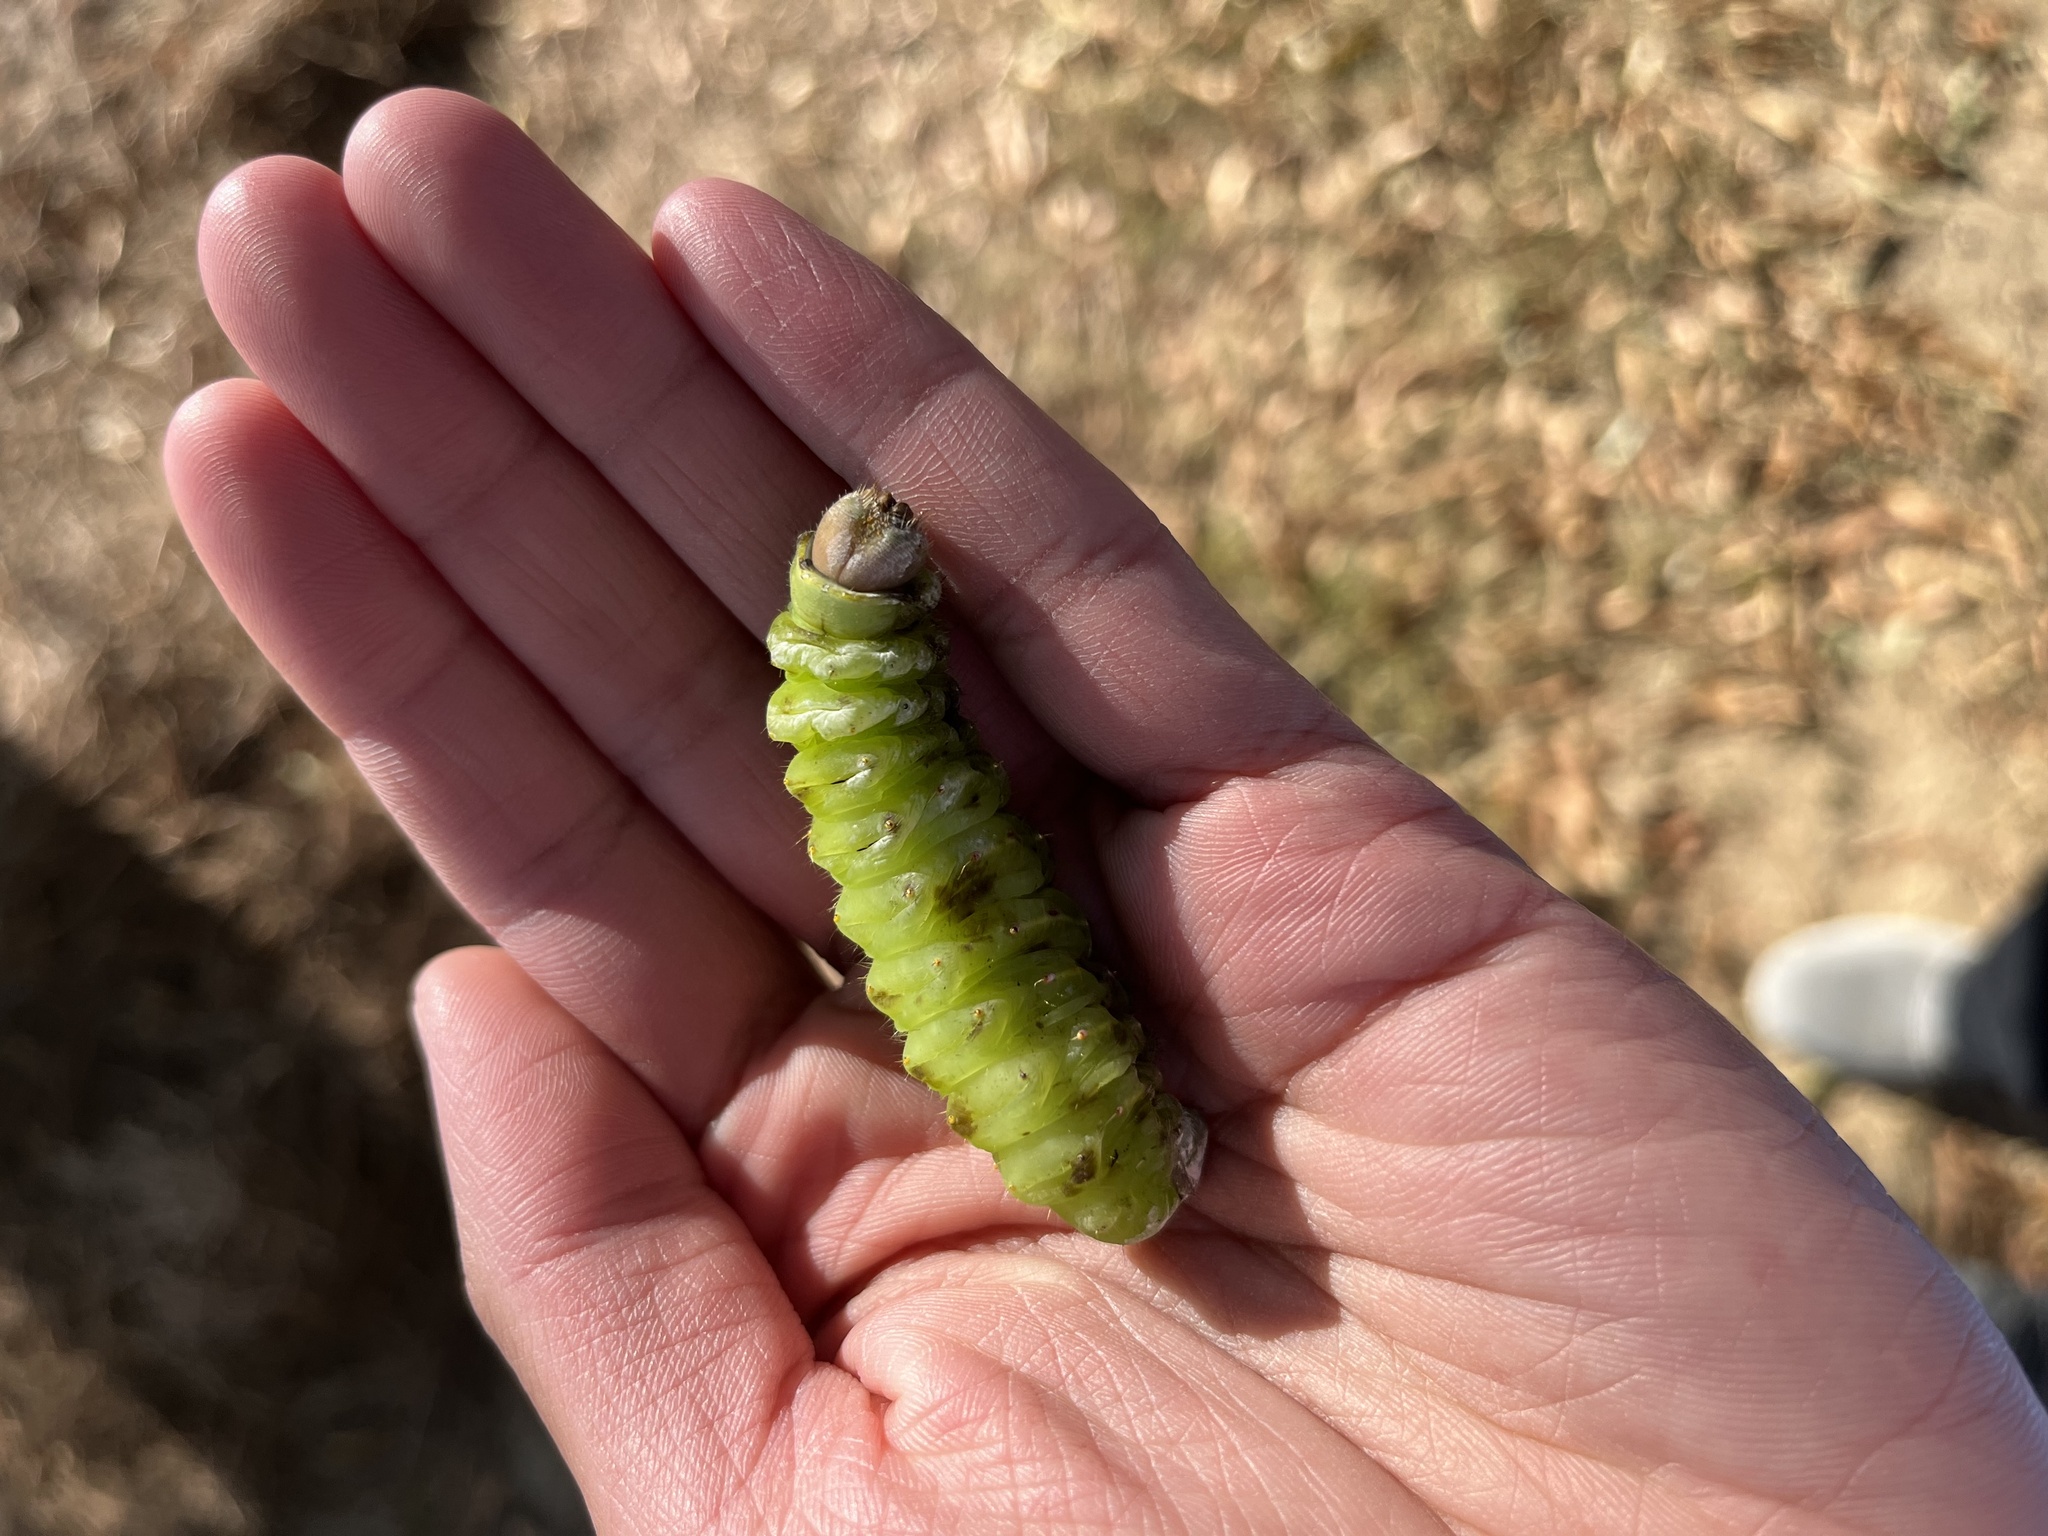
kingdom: Animalia
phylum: Arthropoda
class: Insecta
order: Lepidoptera
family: Saturniidae
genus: Antheraea
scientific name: Antheraea polyphemus
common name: Polyphemus moth
